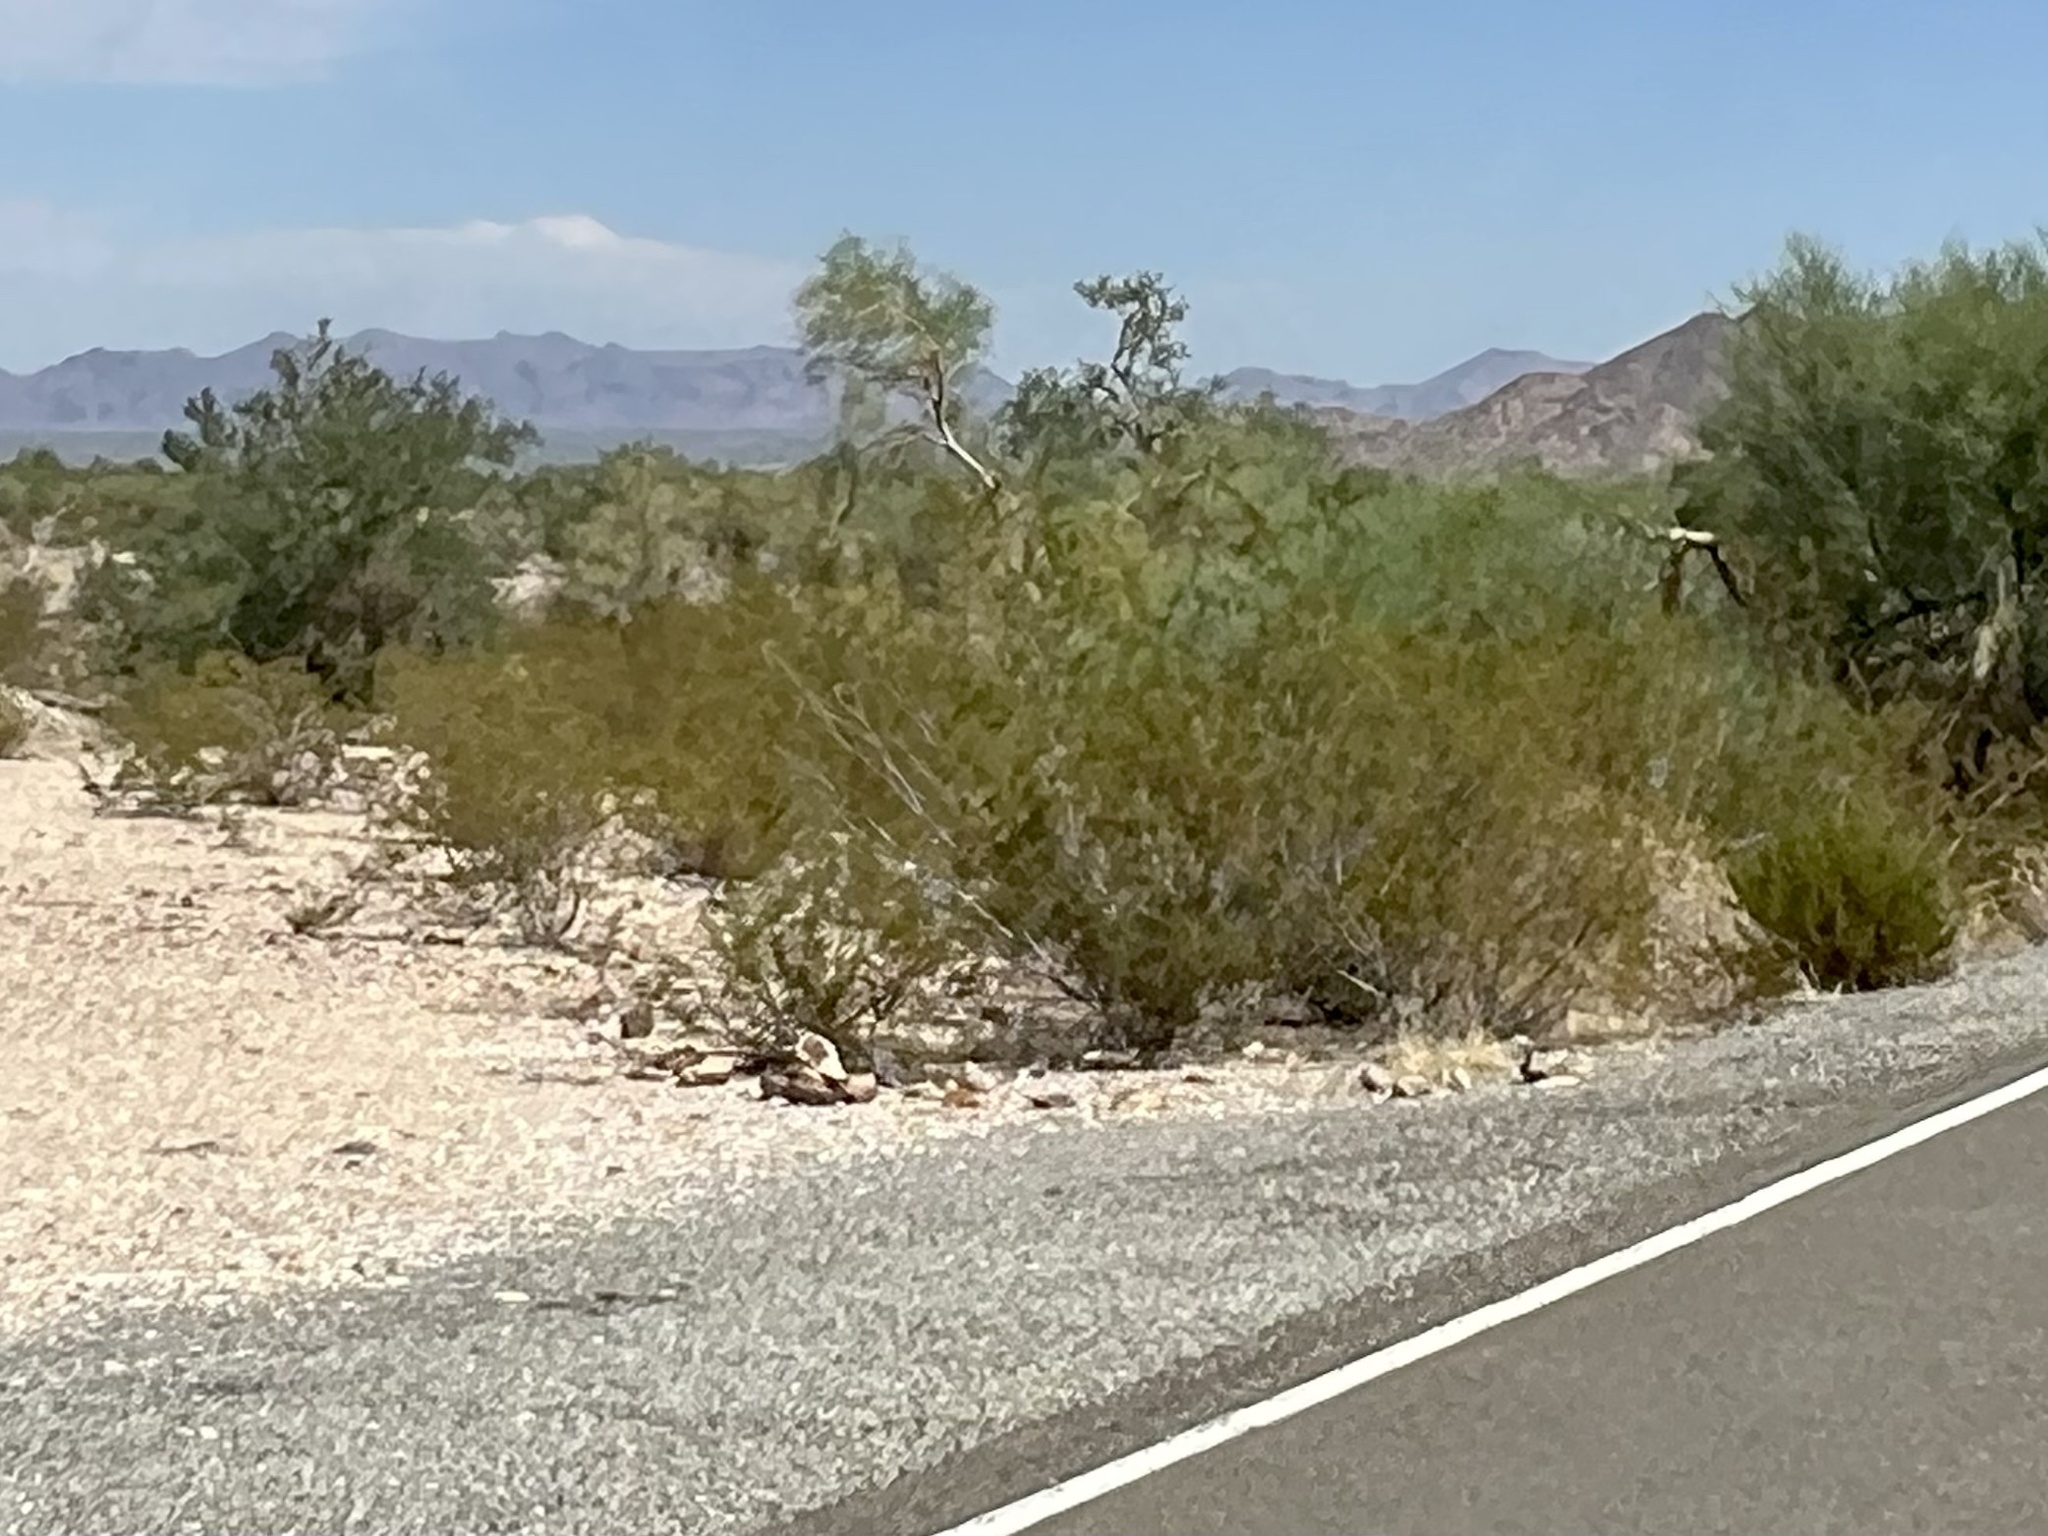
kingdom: Plantae
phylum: Tracheophyta
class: Magnoliopsida
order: Zygophyllales
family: Zygophyllaceae
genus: Larrea
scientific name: Larrea tridentata
